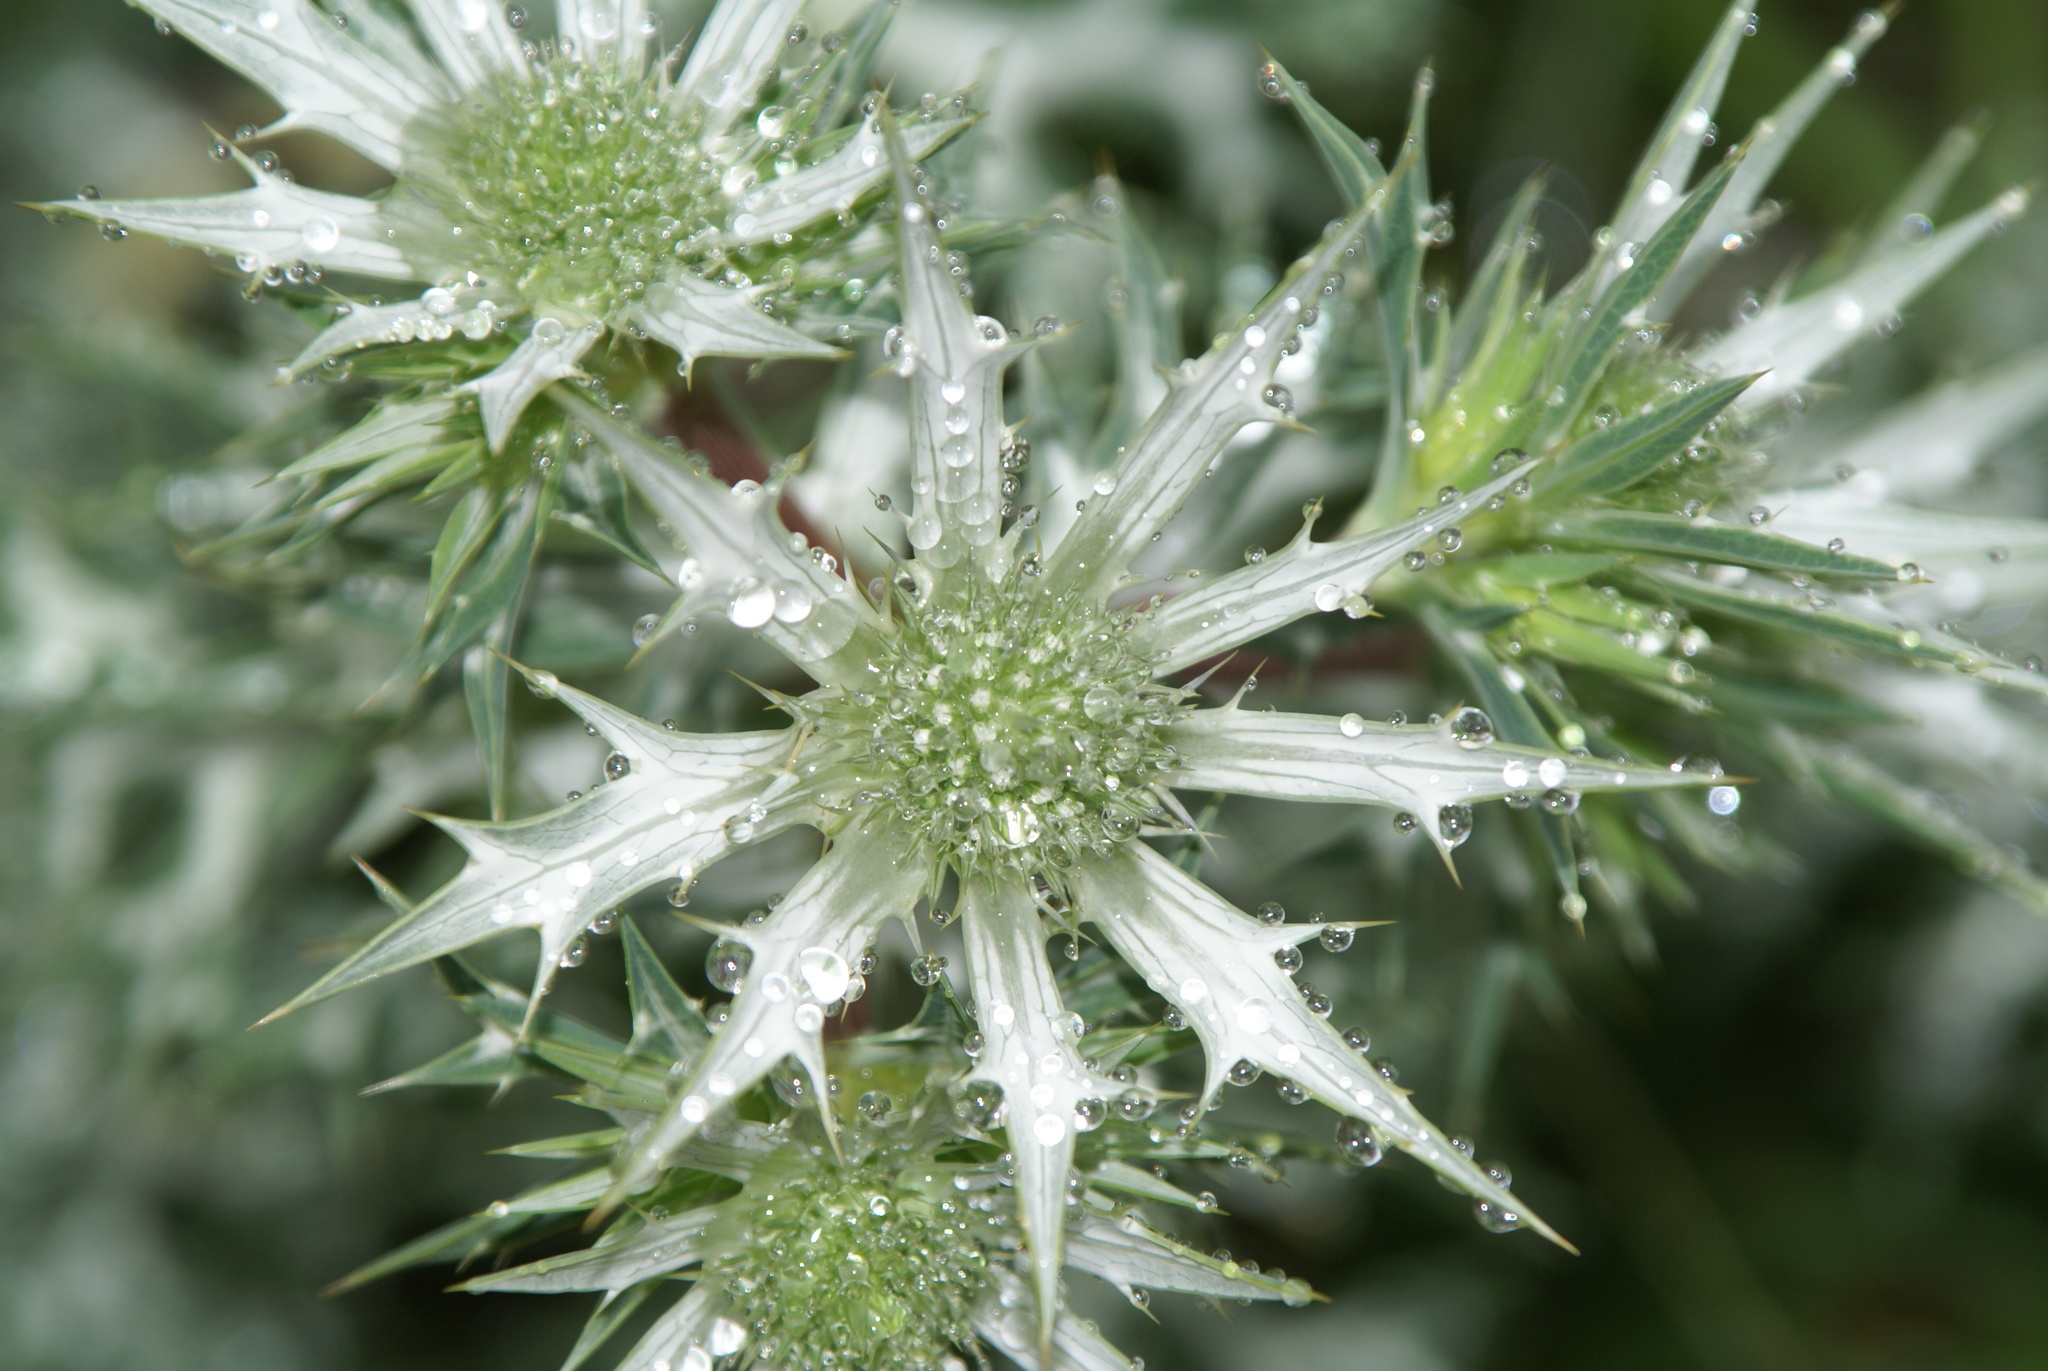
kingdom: Plantae
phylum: Tracheophyta
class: Magnoliopsida
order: Apiales
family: Apiaceae
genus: Eryngium
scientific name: Eryngium bourgatii
